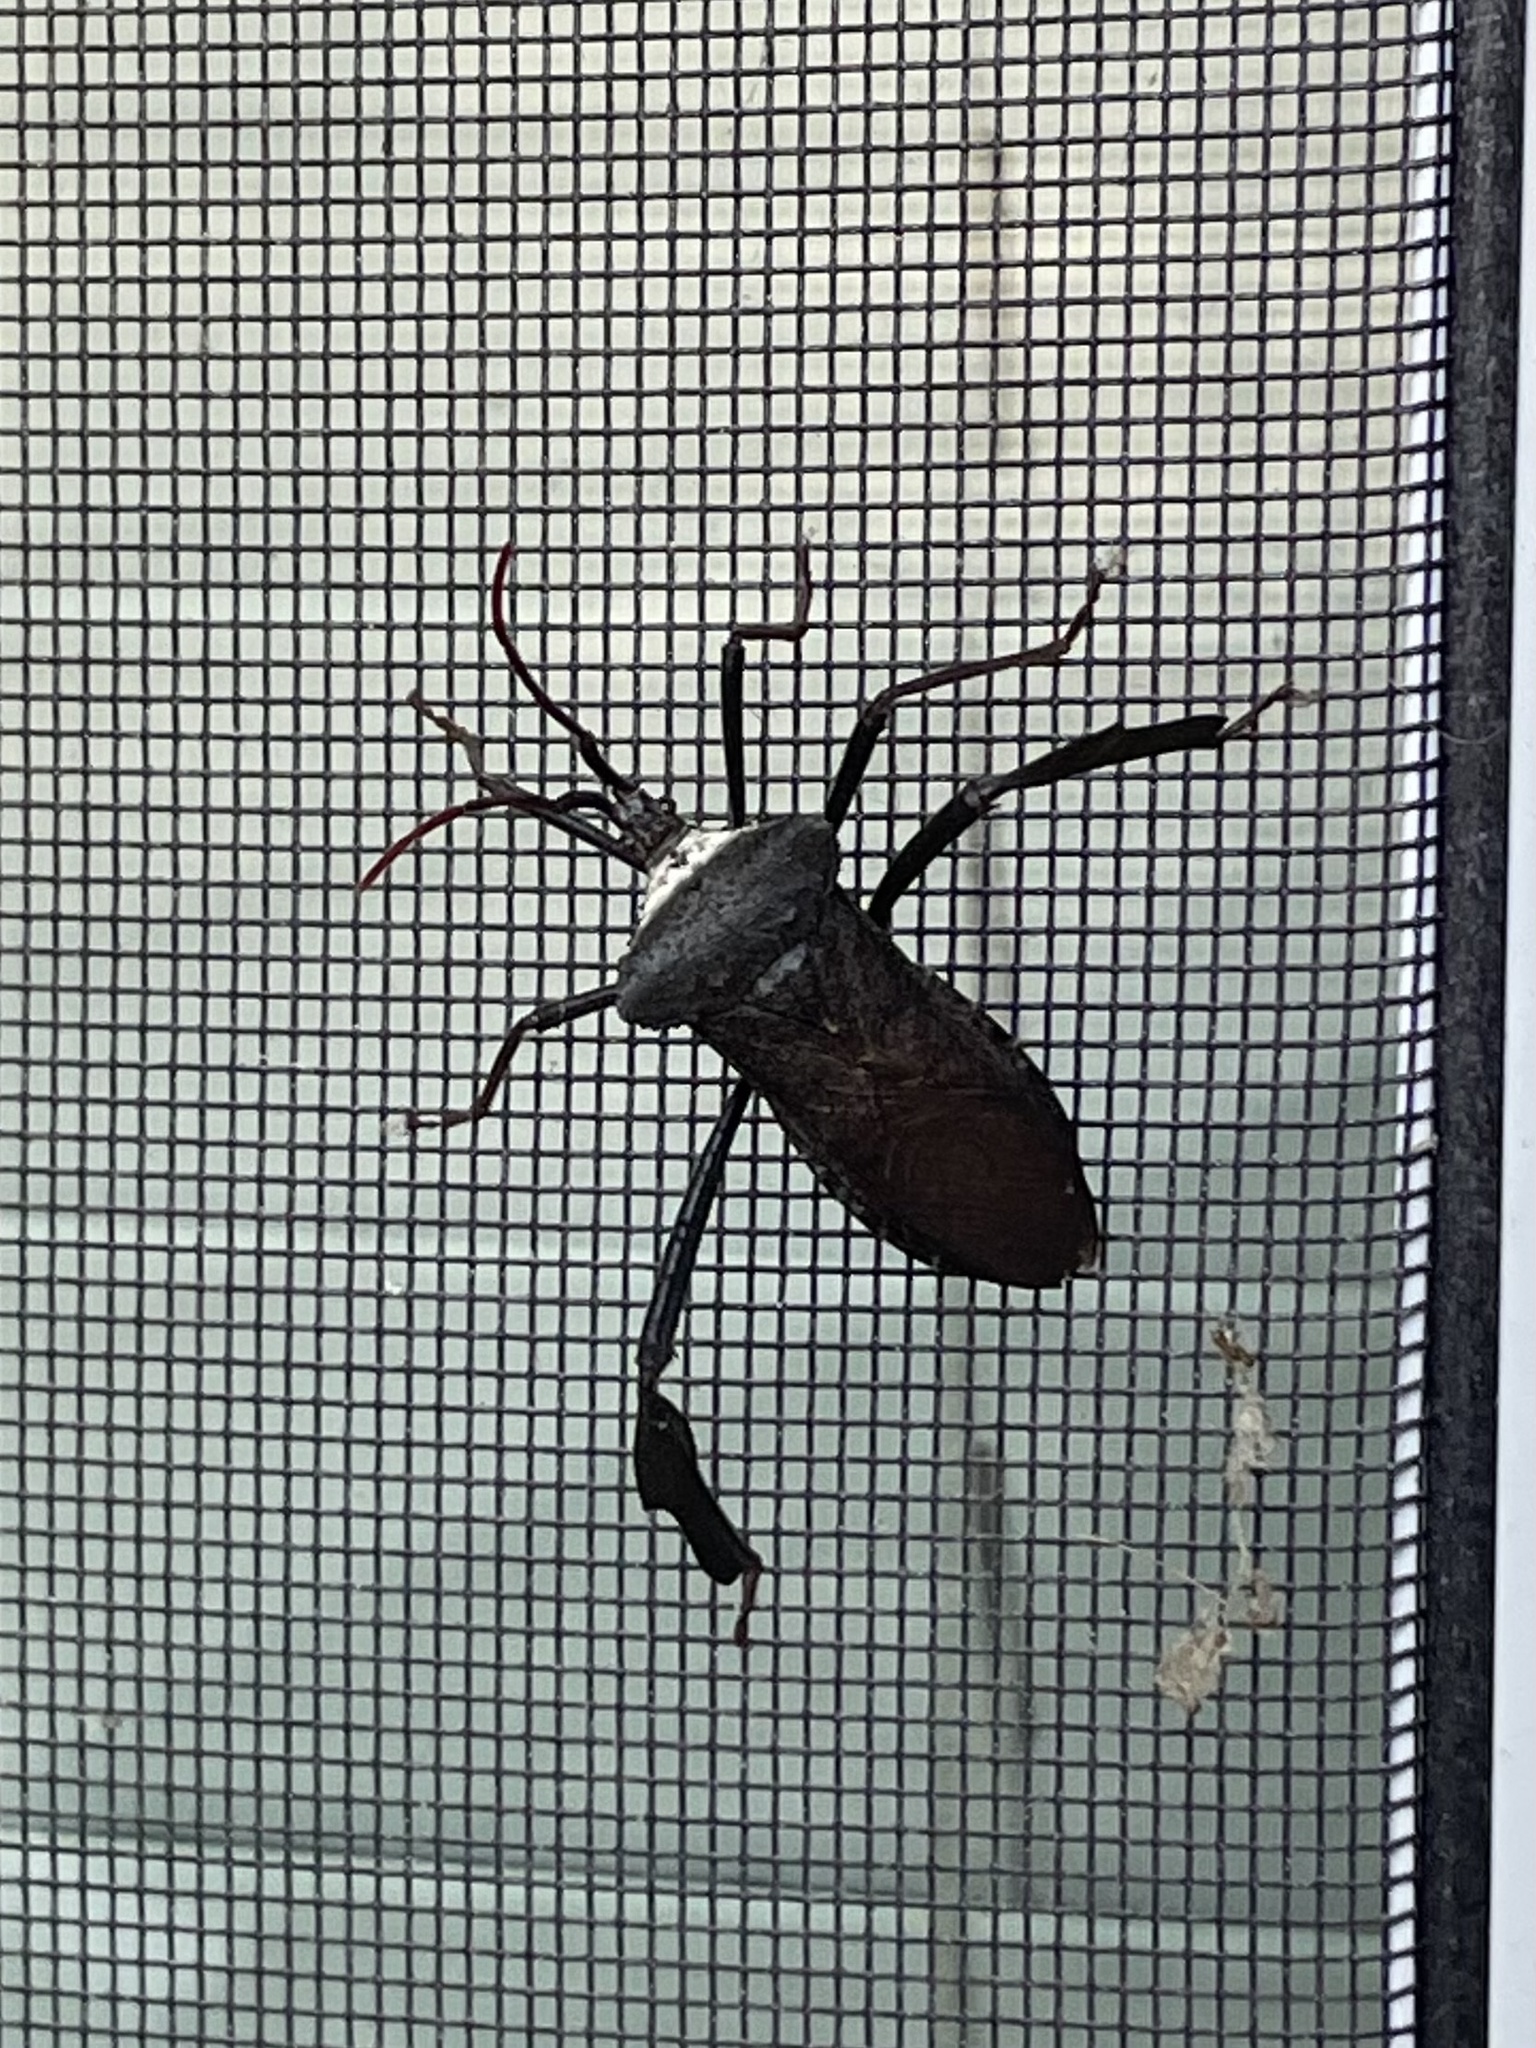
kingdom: Animalia
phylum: Arthropoda
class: Insecta
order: Hemiptera
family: Coreidae
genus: Acanthocephala
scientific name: Acanthocephala declivis
